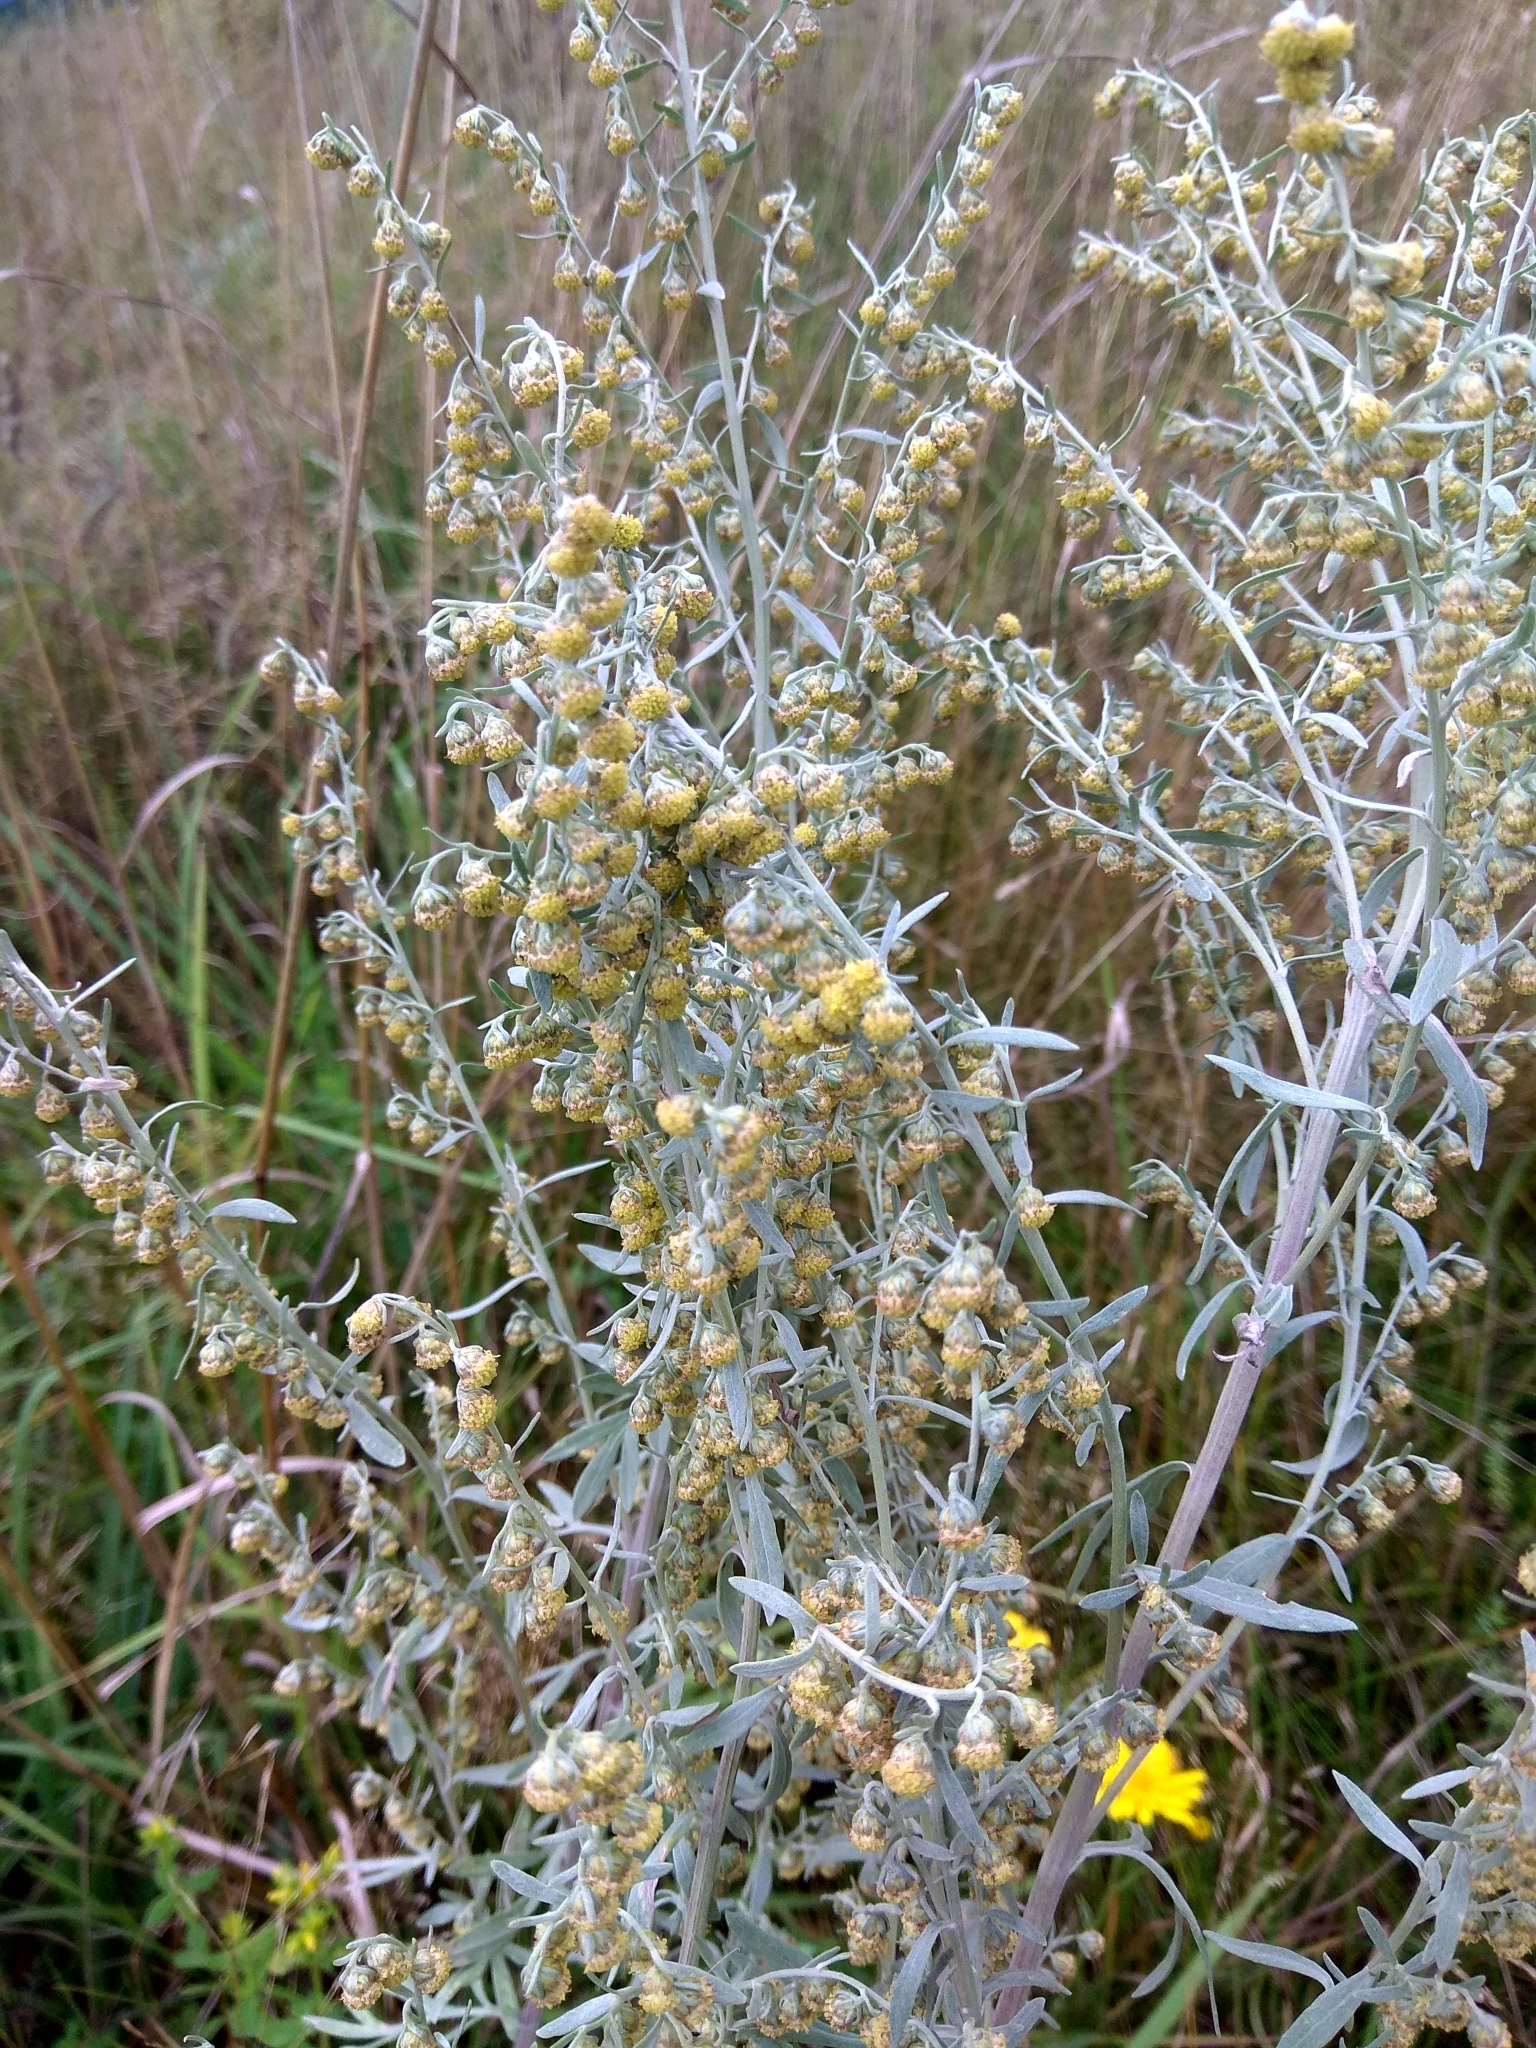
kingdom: Plantae
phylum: Tracheophyta
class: Magnoliopsida
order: Asterales
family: Asteraceae
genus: Artemisia
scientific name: Artemisia absinthium
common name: Wormwood
